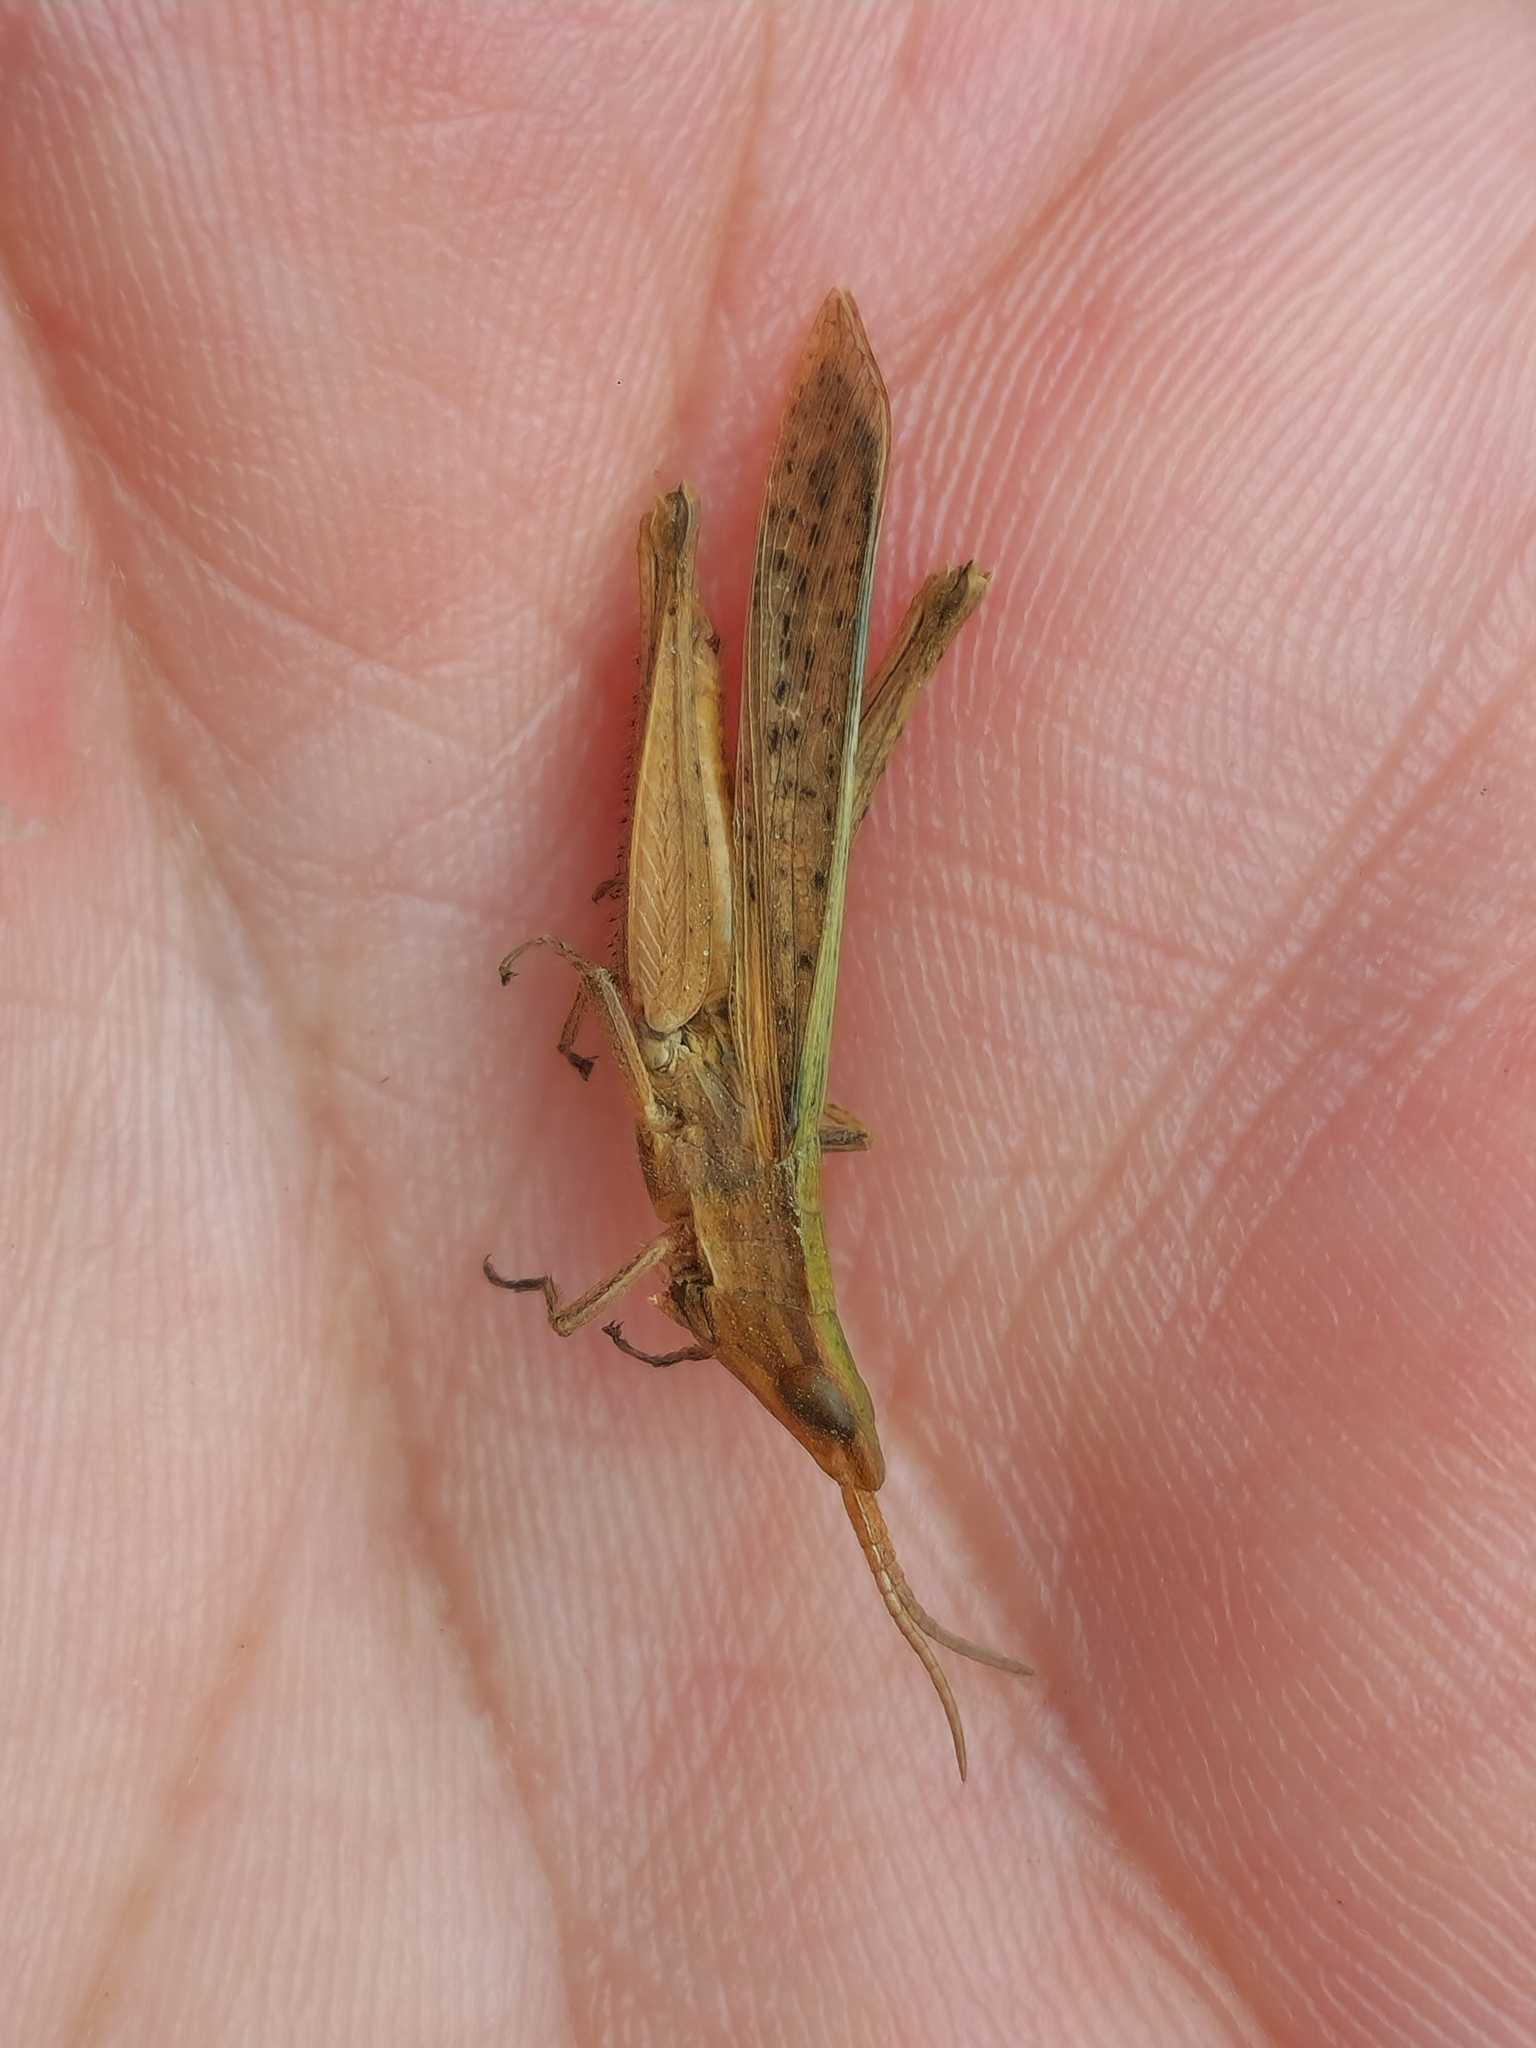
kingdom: Animalia
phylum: Arthropoda
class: Insecta
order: Orthoptera
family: Acrididae
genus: Allotruxalis
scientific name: Allotruxalis gracilis
